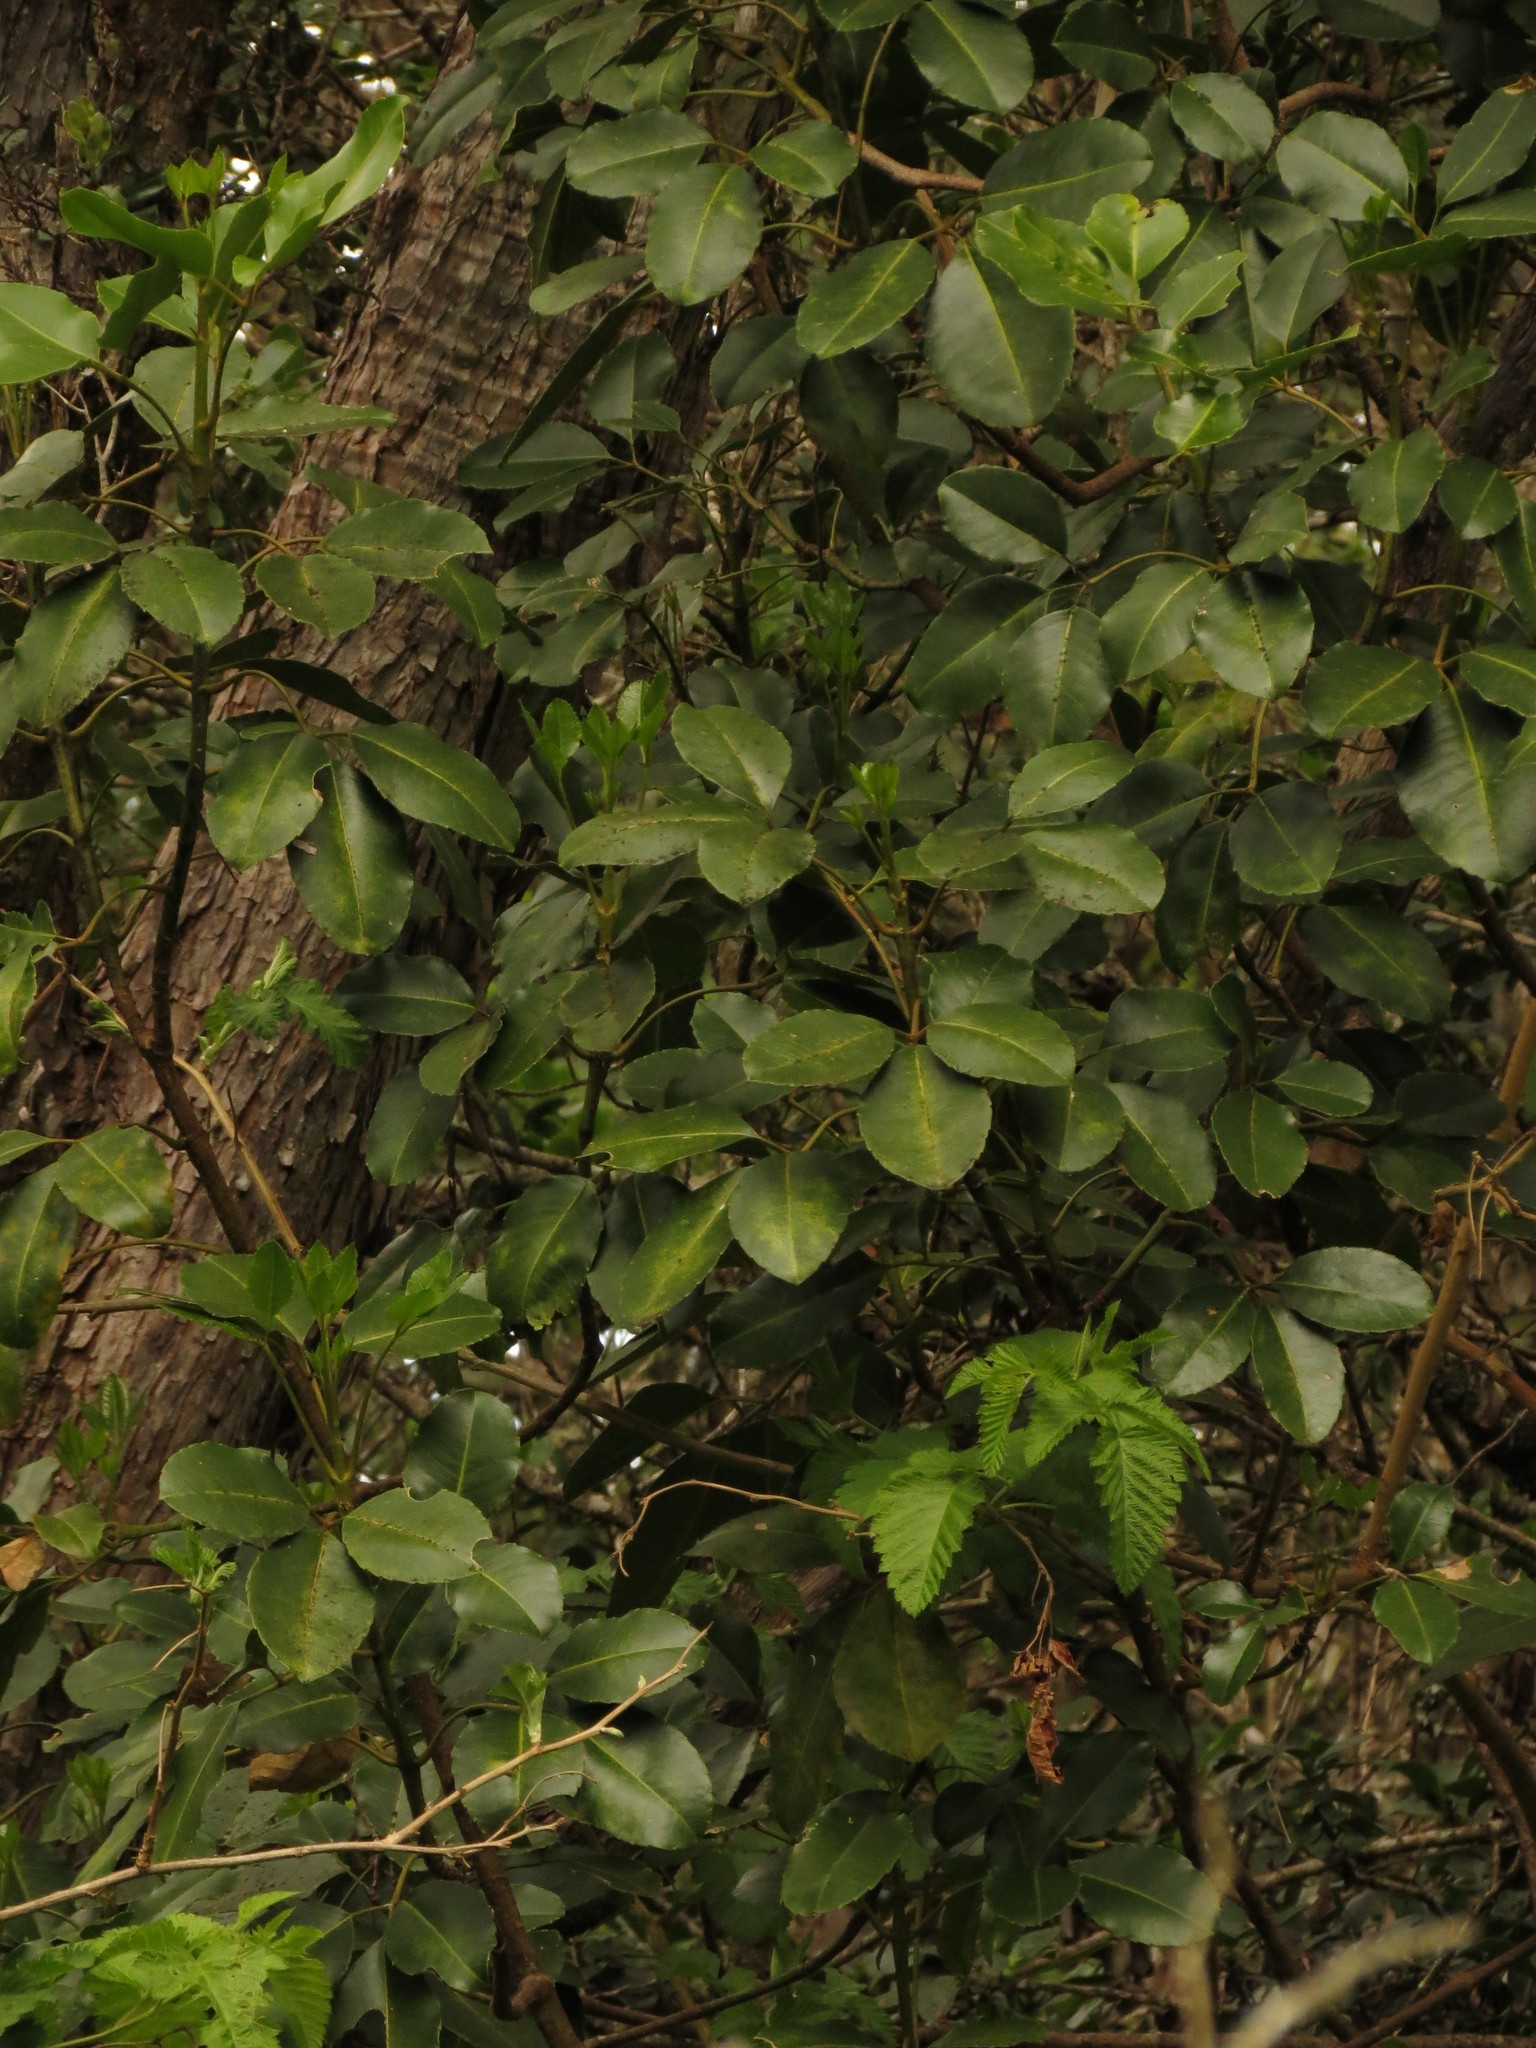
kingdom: Plantae
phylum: Tracheophyta
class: Magnoliopsida
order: Apiales
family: Araliaceae
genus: Cheirodendron
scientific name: Cheirodendron trigynum
